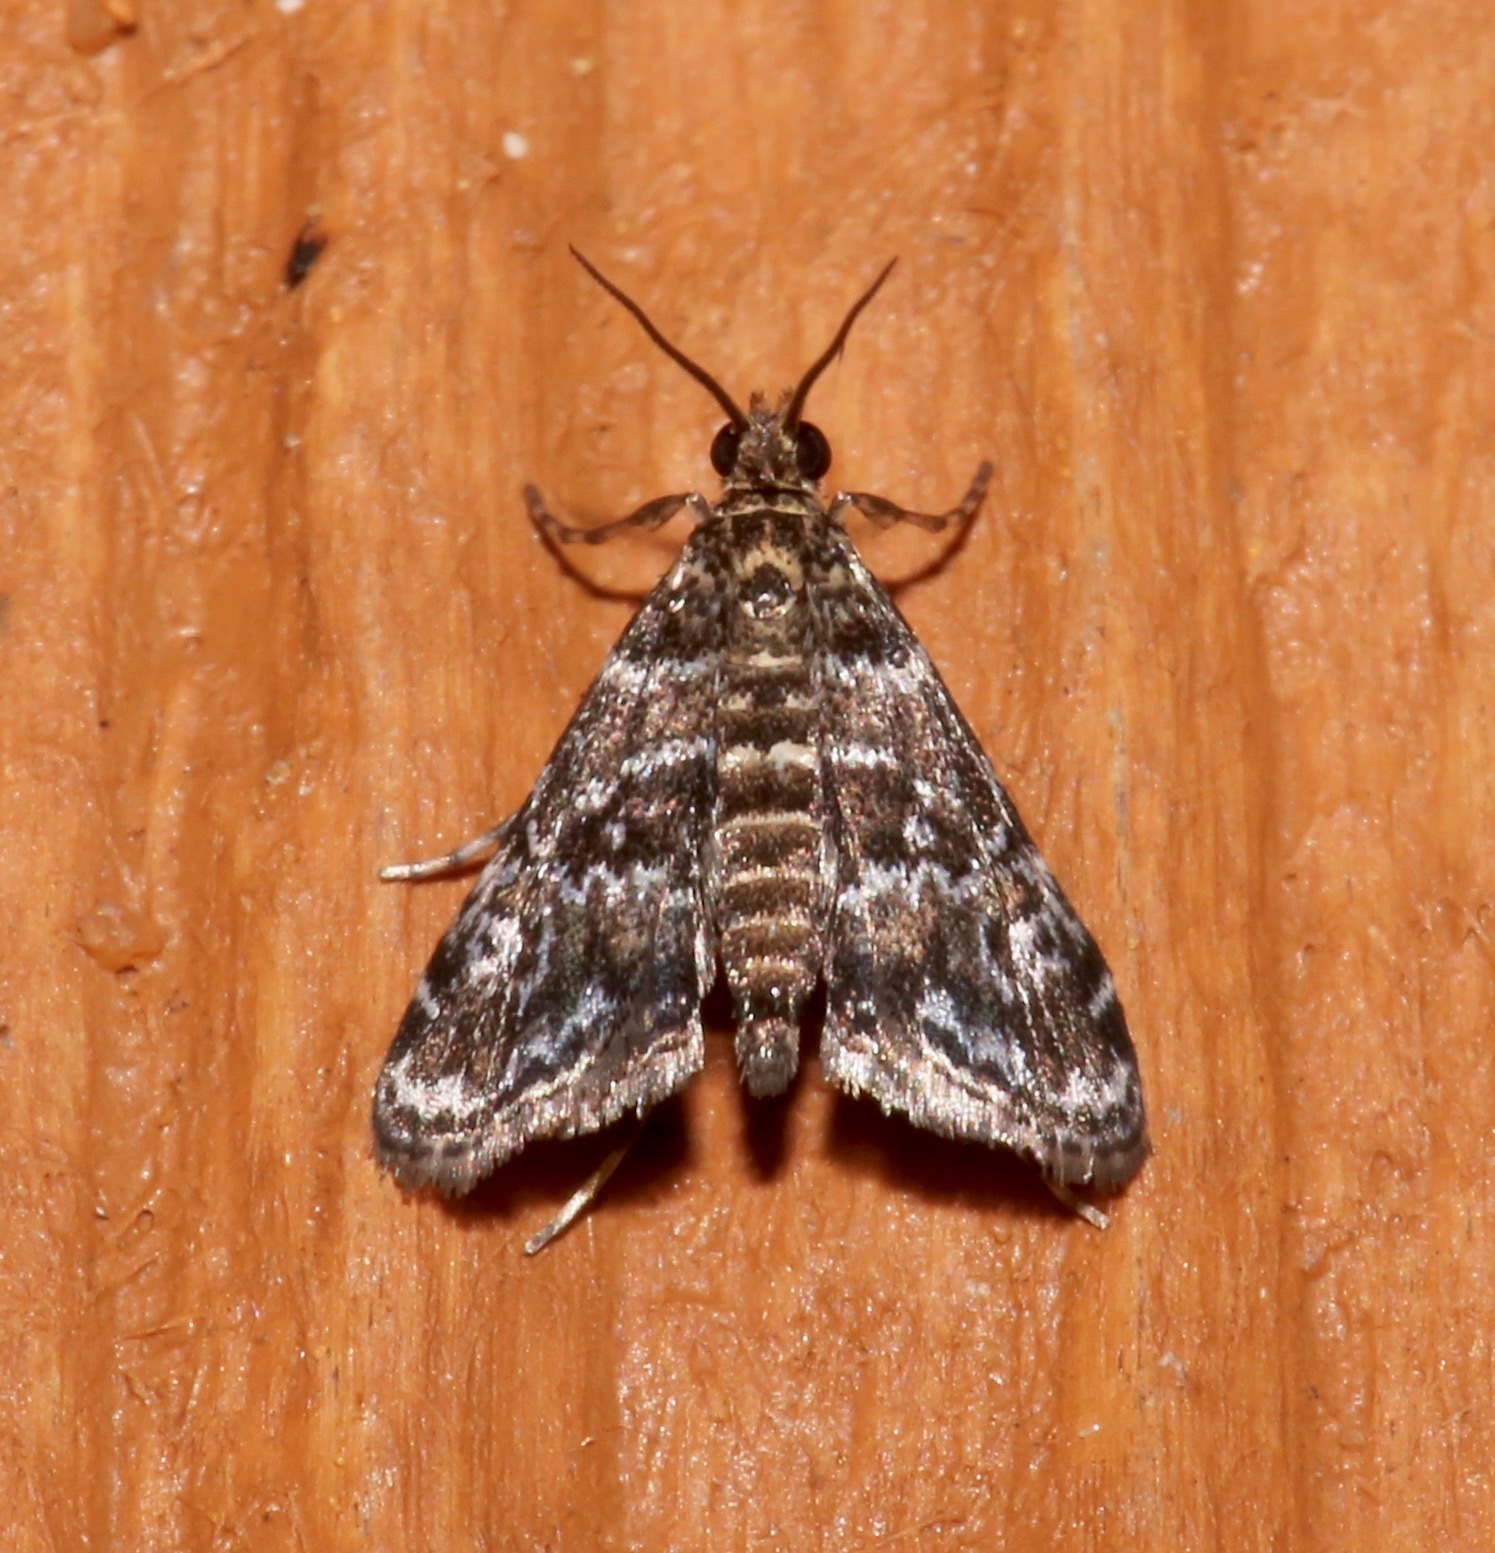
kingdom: Animalia
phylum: Arthropoda
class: Insecta
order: Lepidoptera
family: Crambidae
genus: Elophila
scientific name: Elophila obliteralis
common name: Waterlily leafcutter moth
